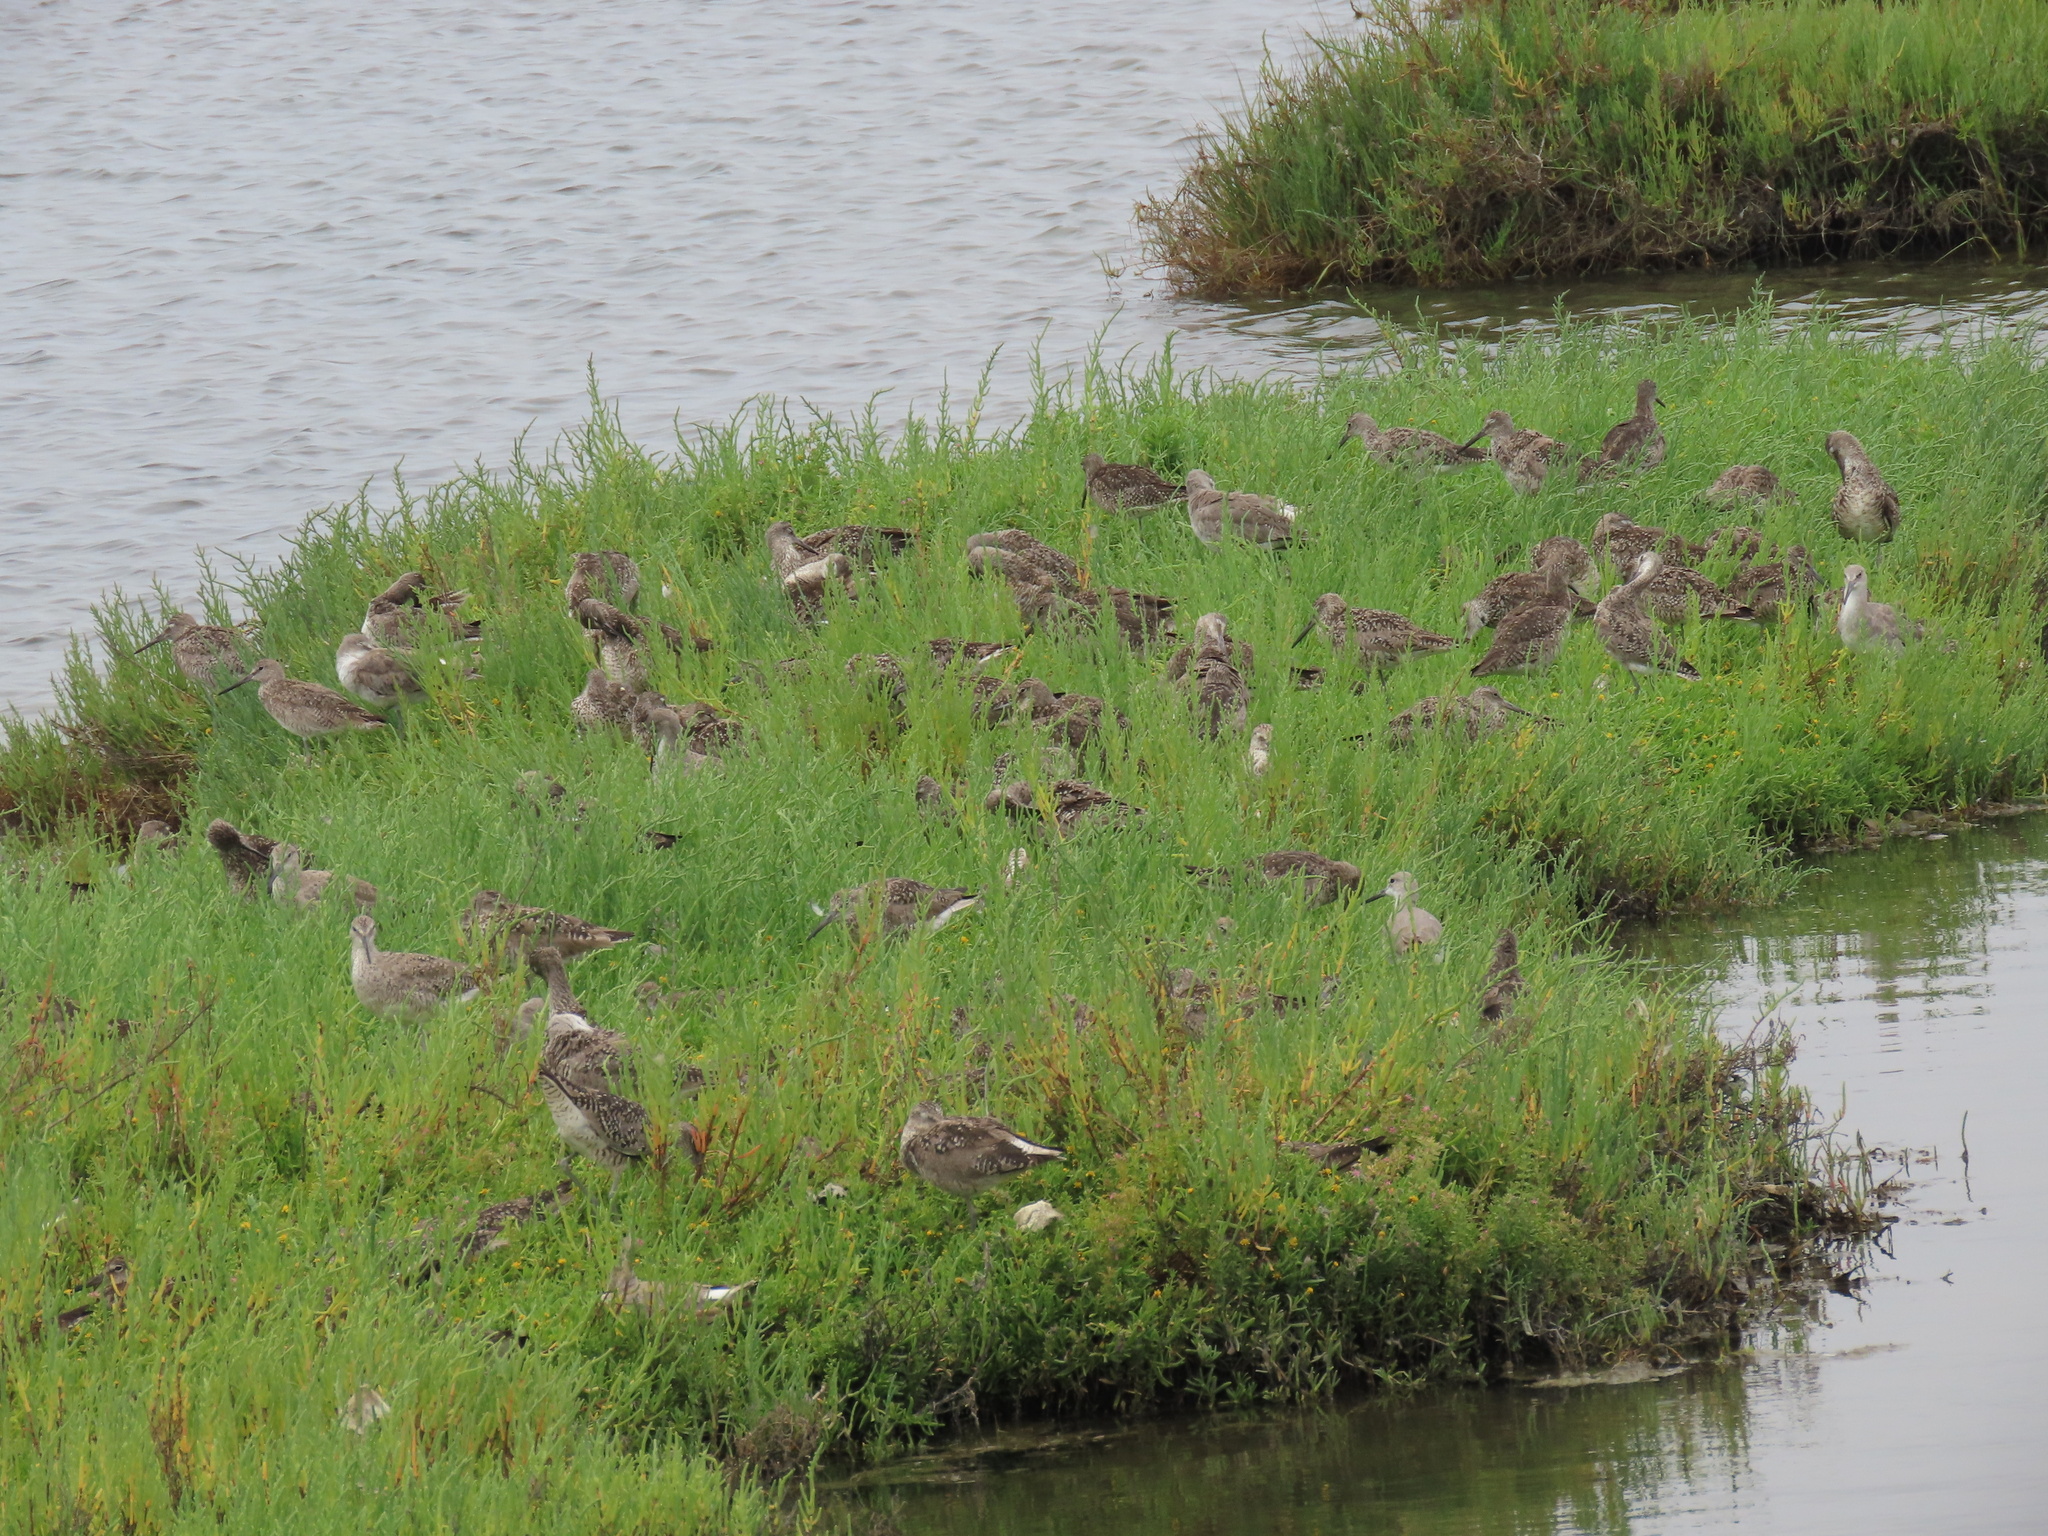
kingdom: Animalia
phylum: Chordata
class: Aves
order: Charadriiformes
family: Scolopacidae
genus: Tringa
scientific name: Tringa semipalmata
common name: Willet
